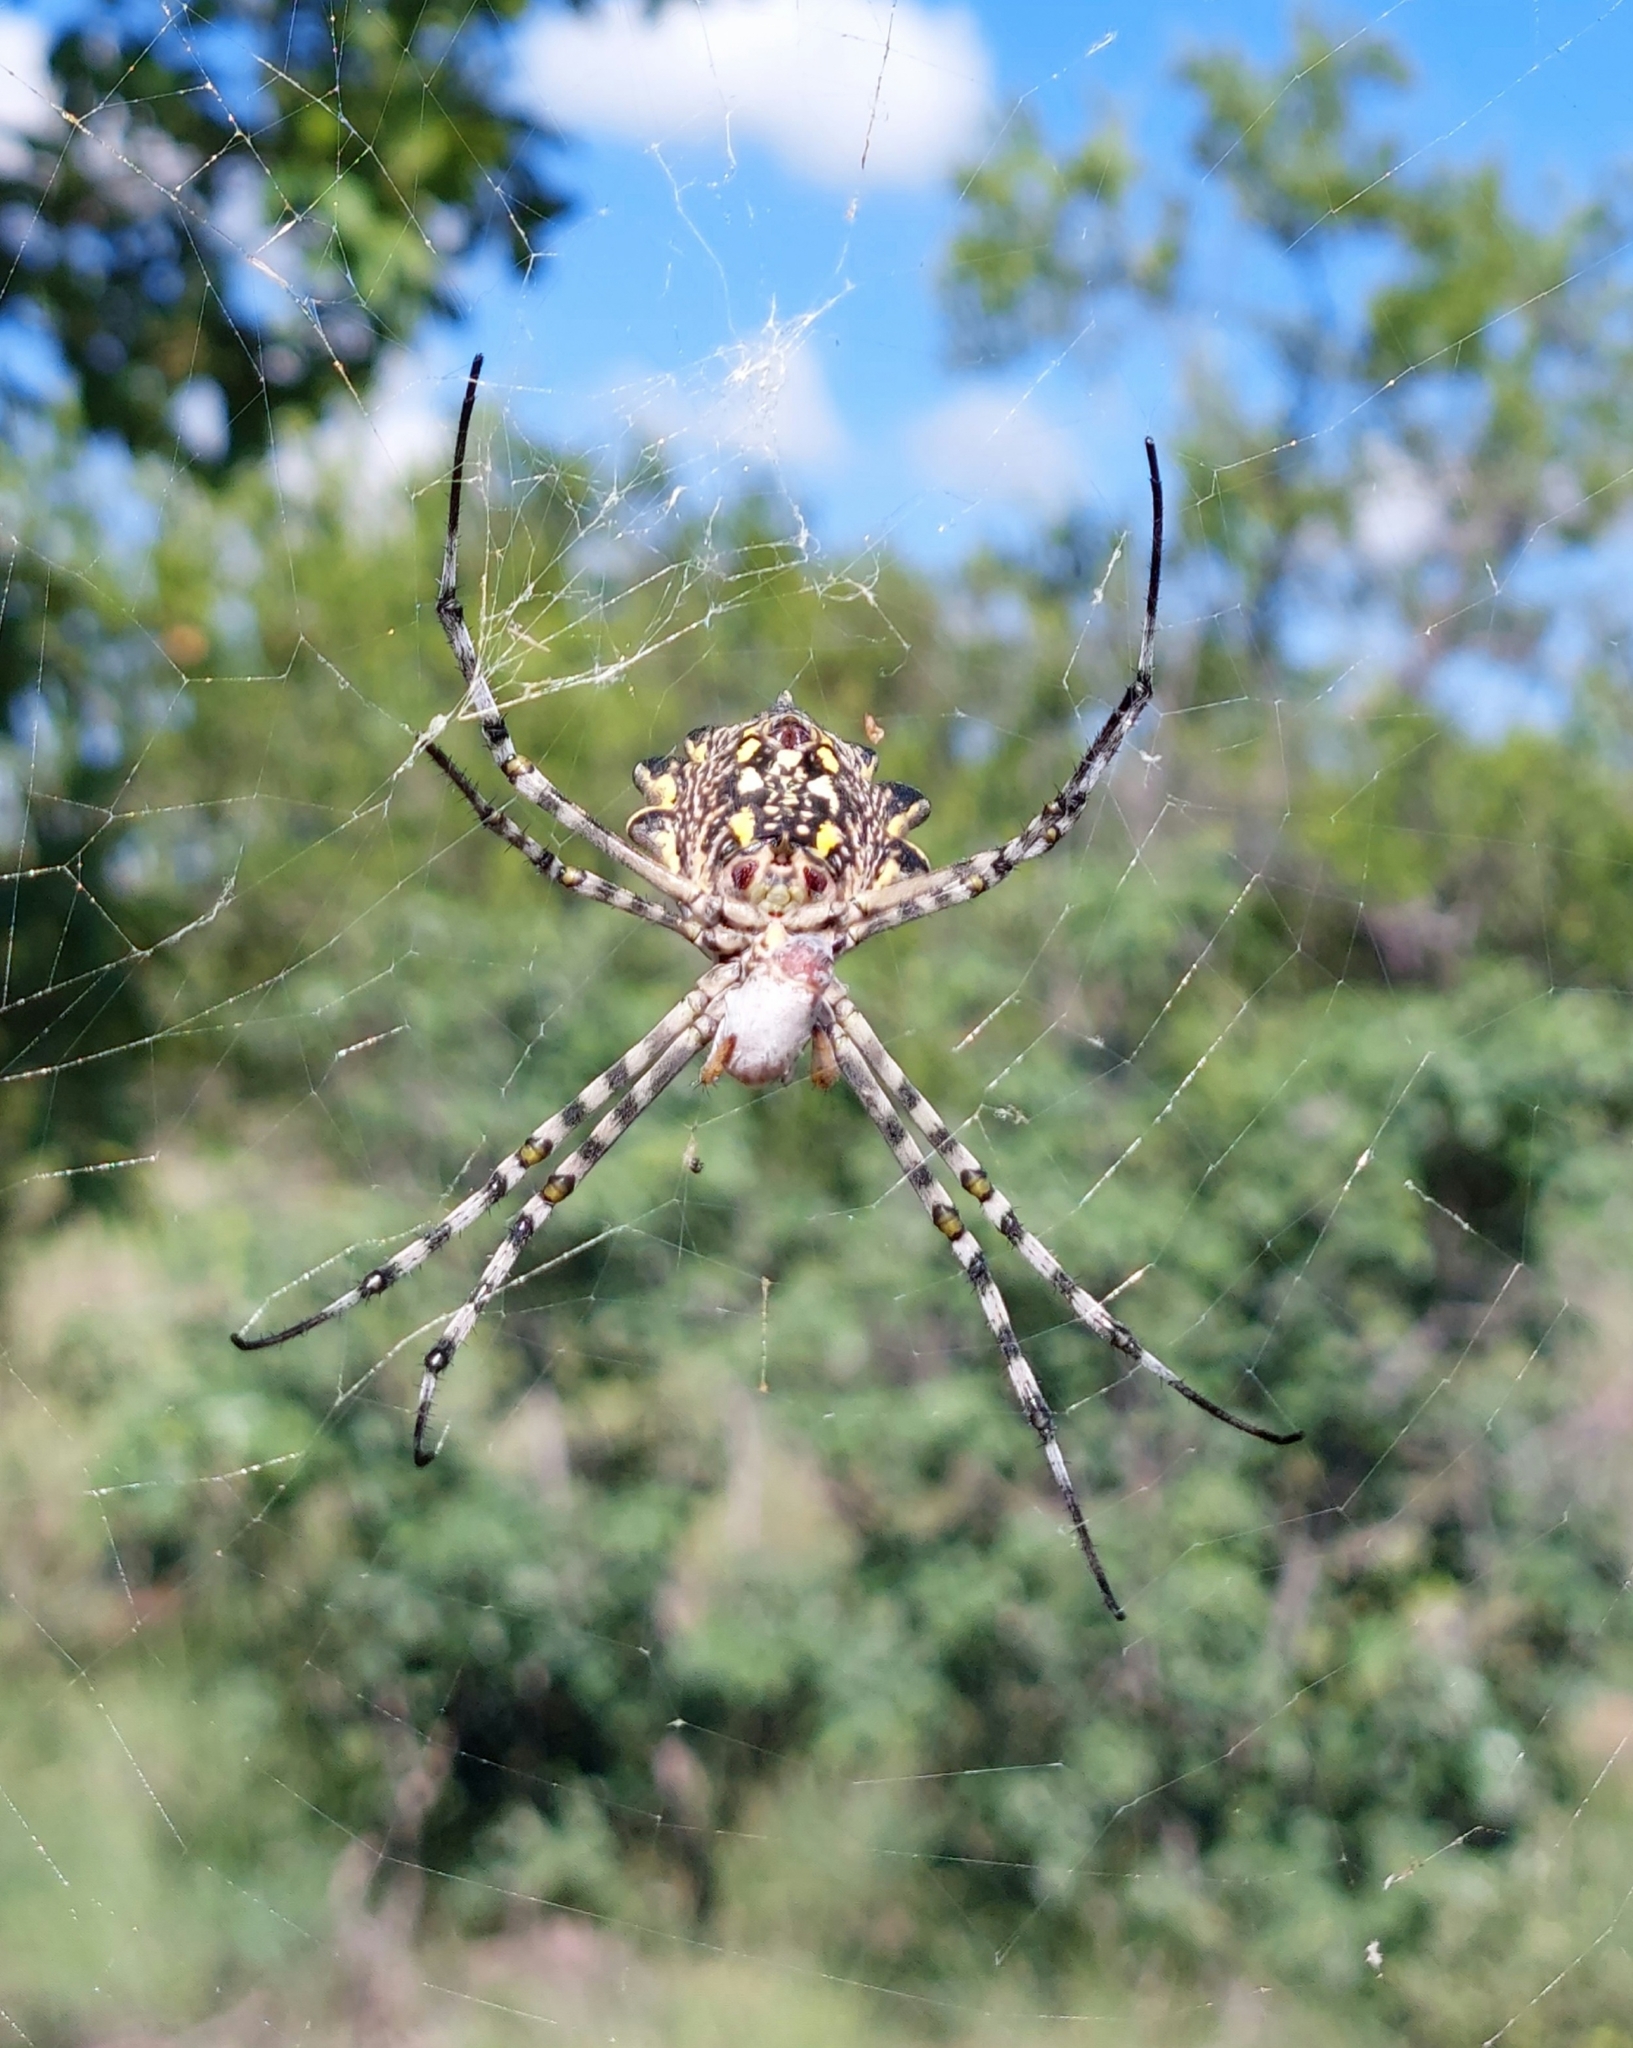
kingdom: Animalia
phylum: Arthropoda
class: Arachnida
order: Araneae
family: Araneidae
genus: Argiope
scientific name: Argiope australis
